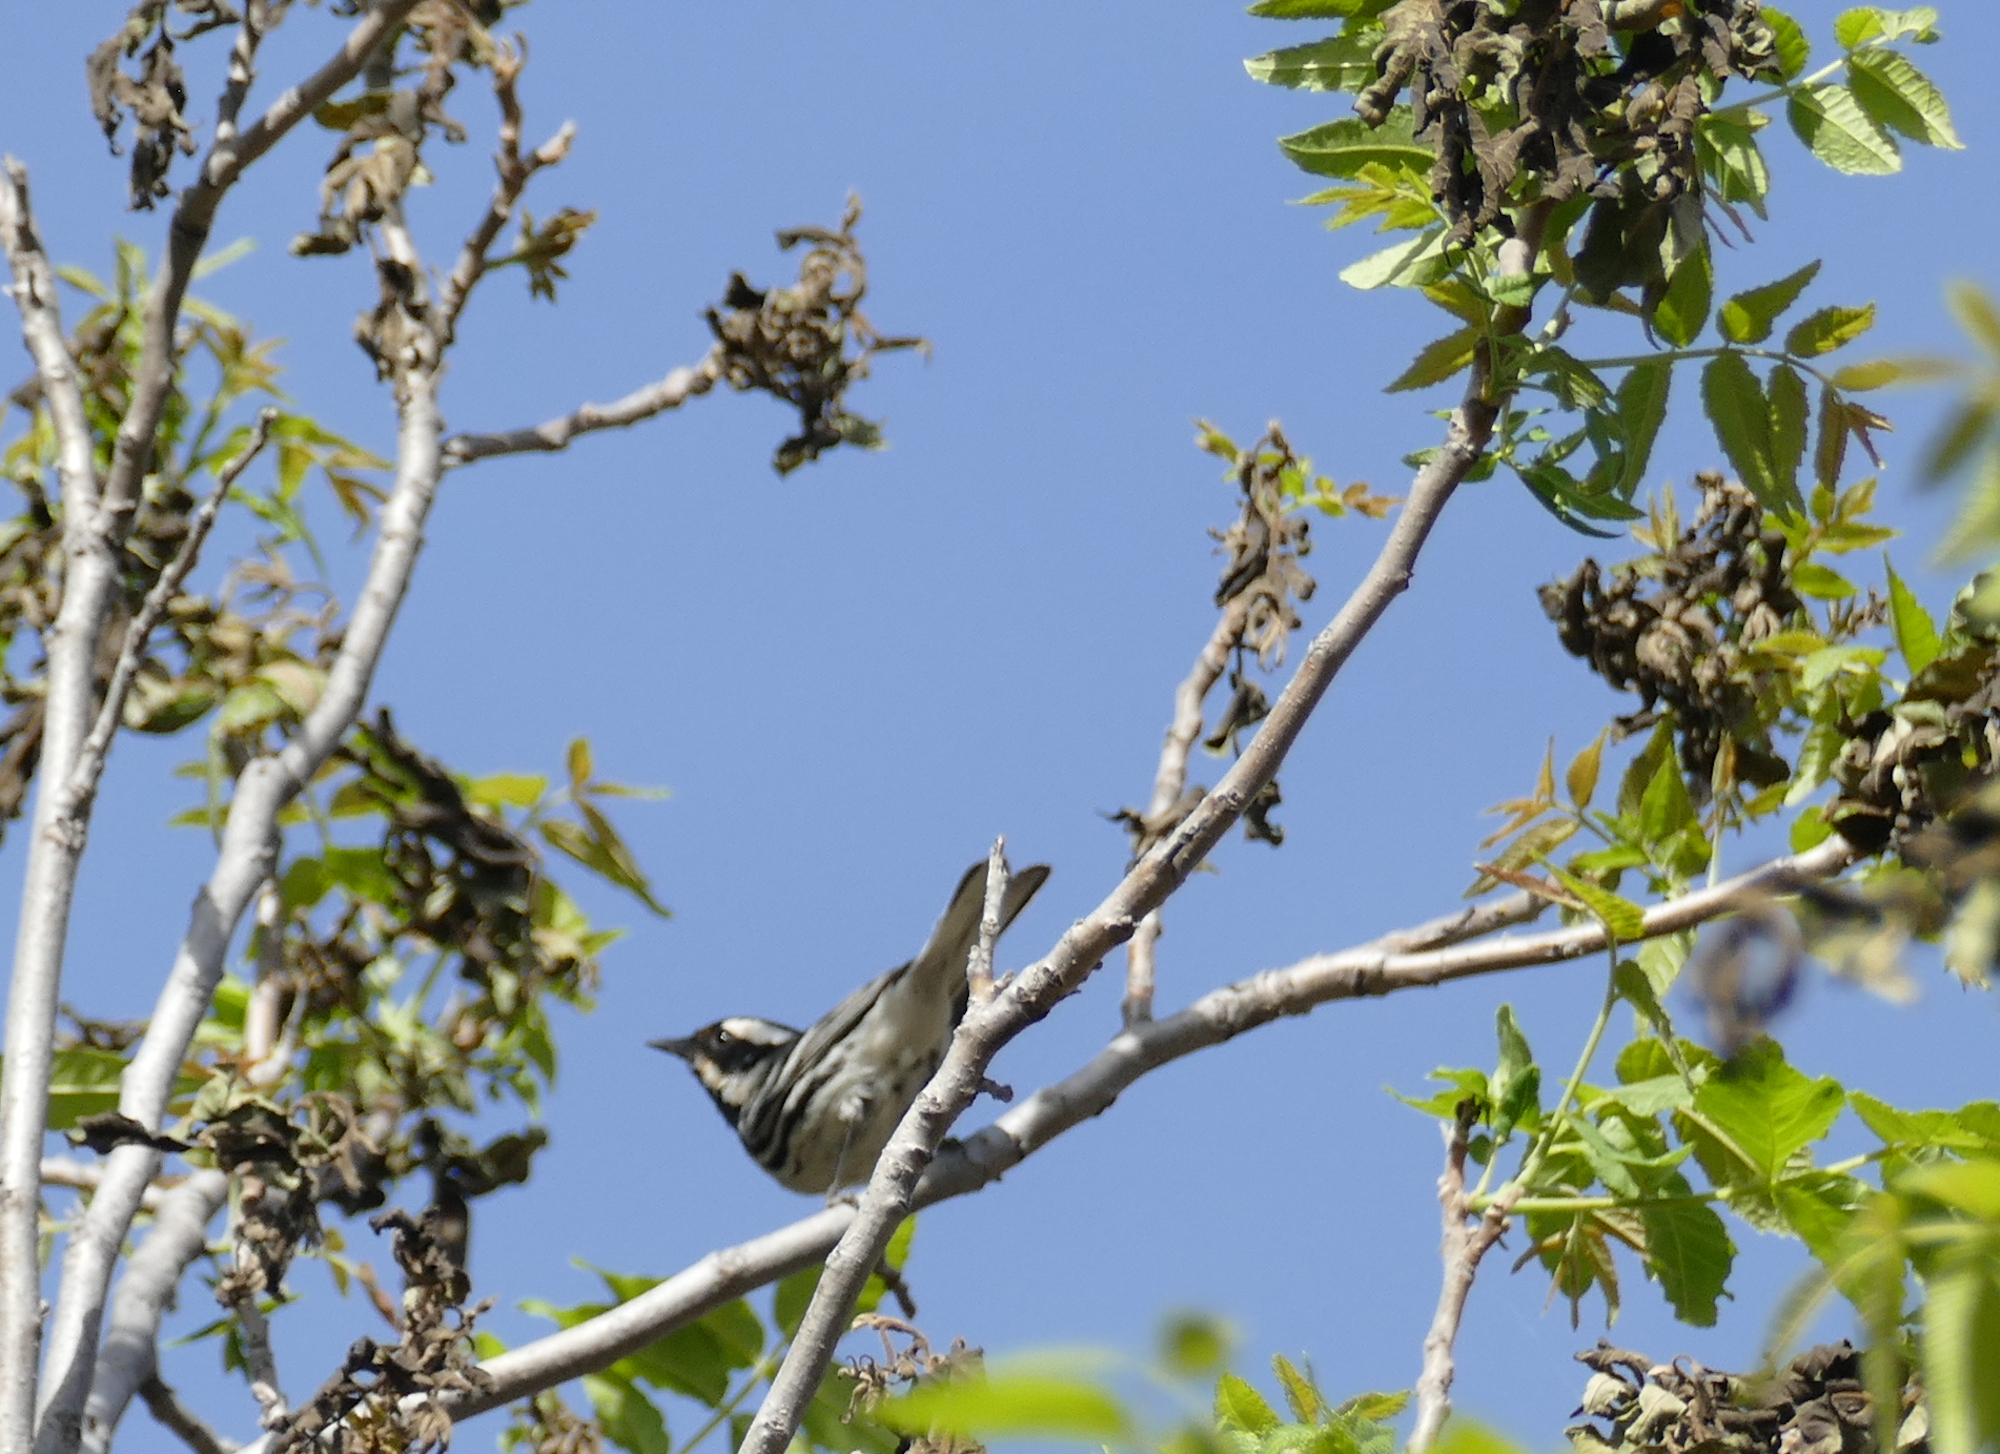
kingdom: Animalia
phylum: Chordata
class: Aves
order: Passeriformes
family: Parulidae
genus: Setophaga
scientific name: Setophaga nigrescens
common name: Black-throated gray warbler
